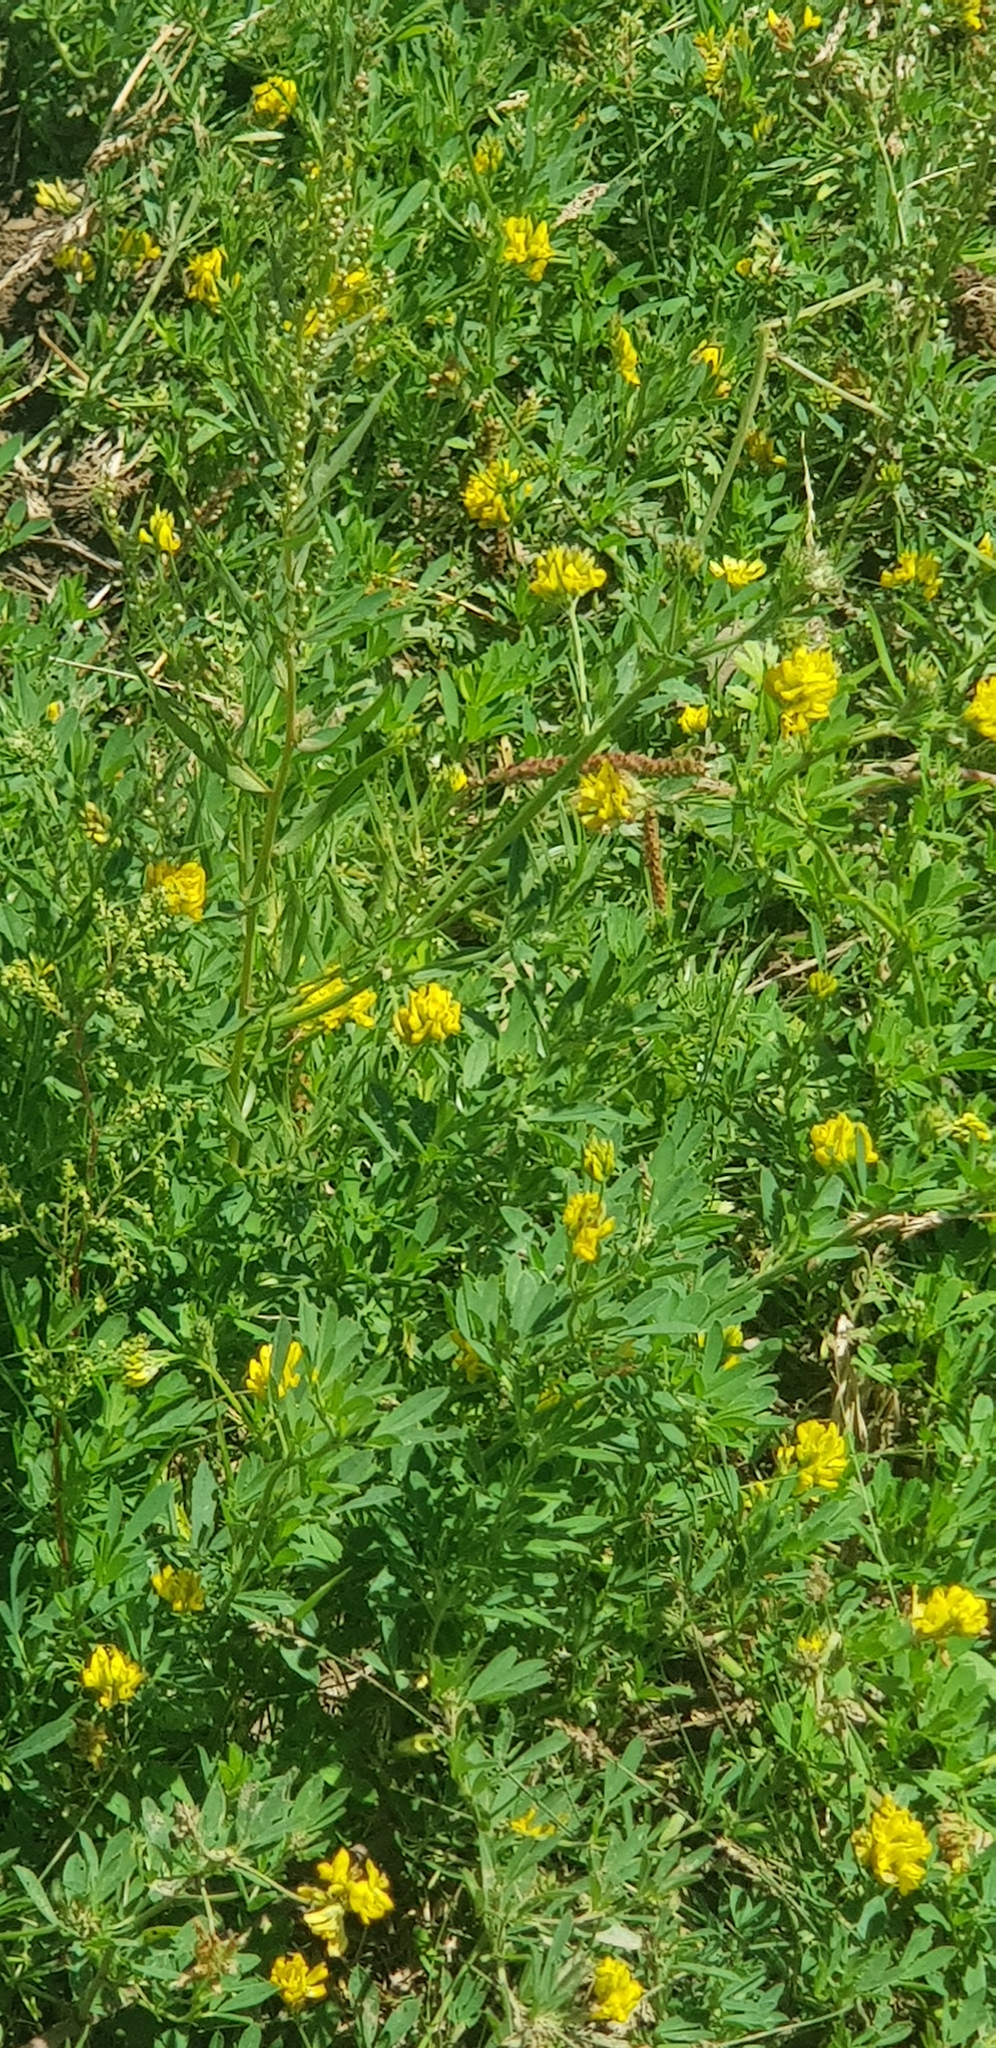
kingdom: Plantae
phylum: Tracheophyta
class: Magnoliopsida
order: Fabales
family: Fabaceae
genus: Medicago
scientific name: Medicago falcata
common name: Sickle medick
